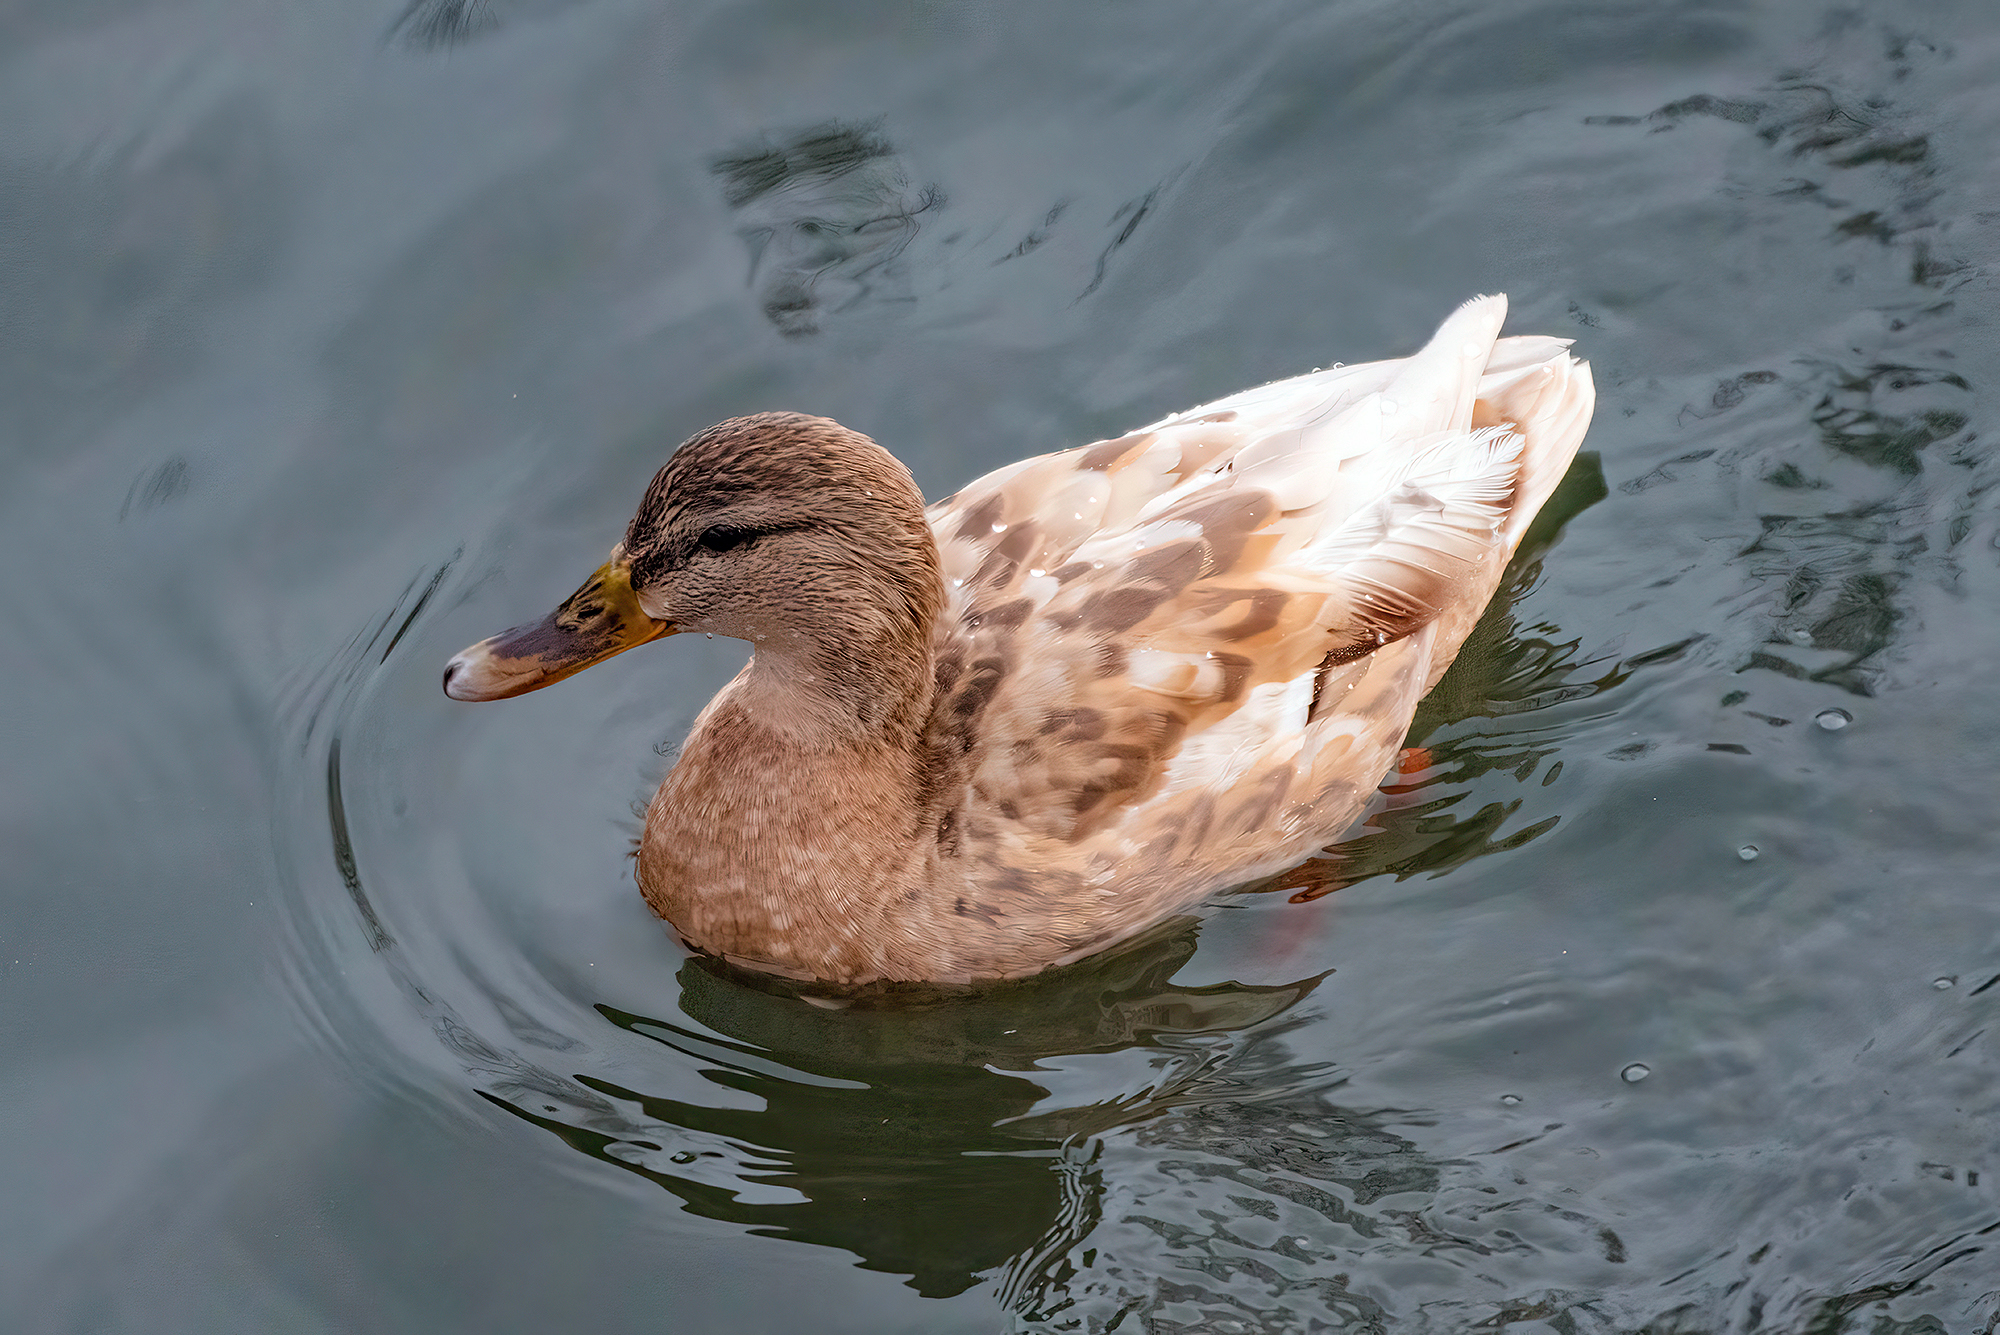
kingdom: Animalia
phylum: Chordata
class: Aves
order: Anseriformes
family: Anatidae
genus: Anas
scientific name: Anas platyrhynchos
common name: Mallard
